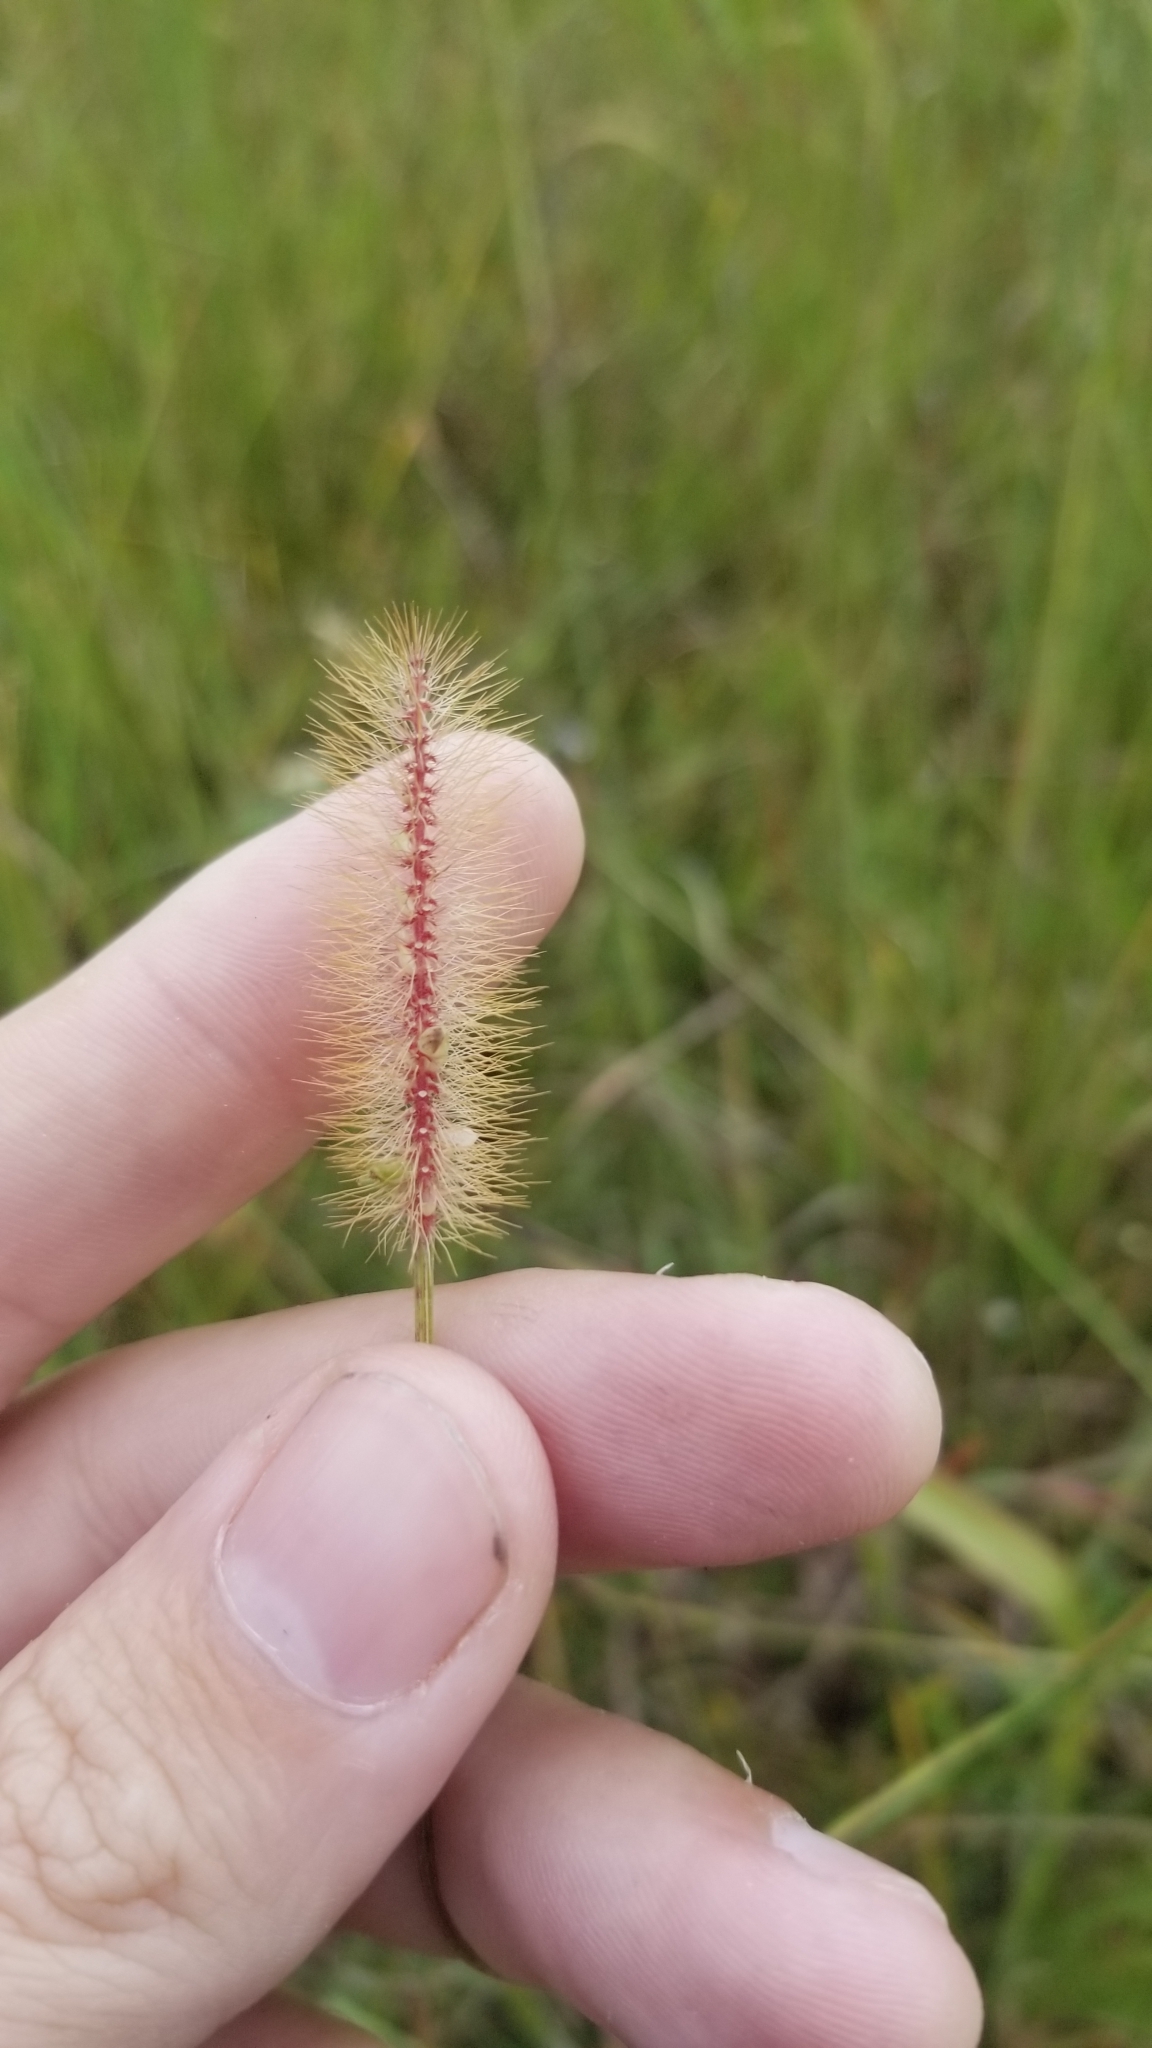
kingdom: Plantae
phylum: Tracheophyta
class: Liliopsida
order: Poales
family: Poaceae
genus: Setaria
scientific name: Setaria parviflora
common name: Knotroot bristle-grass
